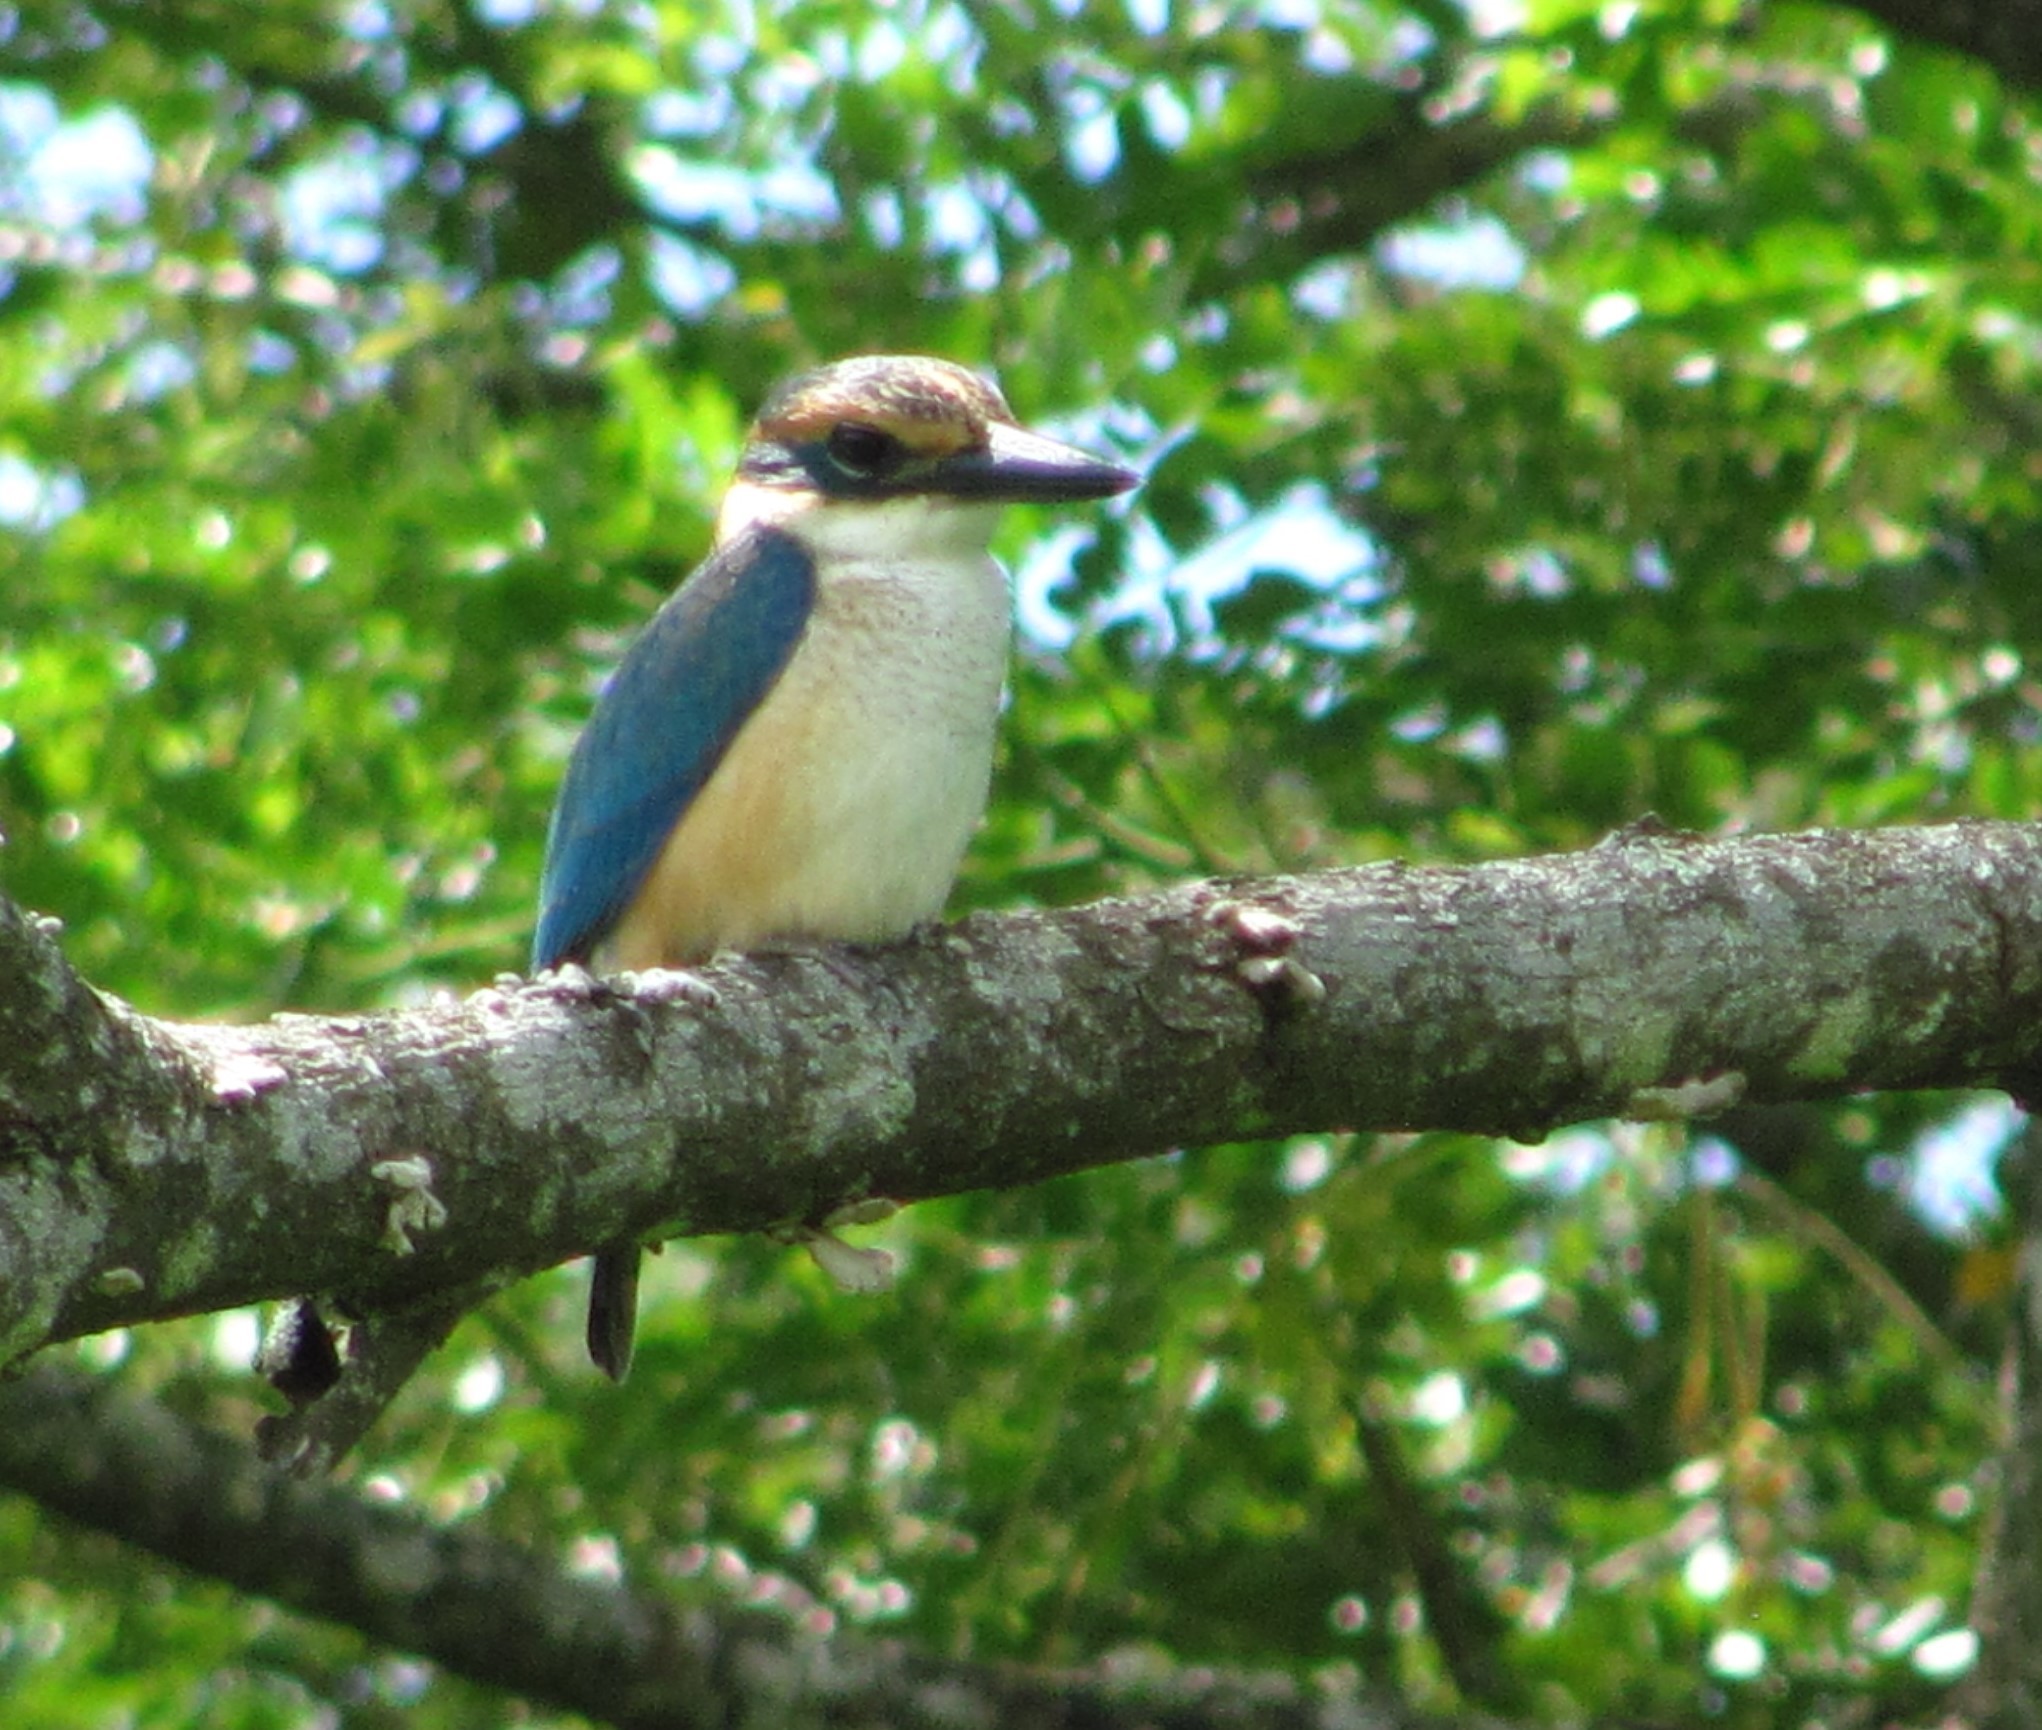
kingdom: Animalia
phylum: Chordata
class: Aves
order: Coraciiformes
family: Alcedinidae
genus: Todiramphus
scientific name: Todiramphus sacer
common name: Pacific kingfisher
